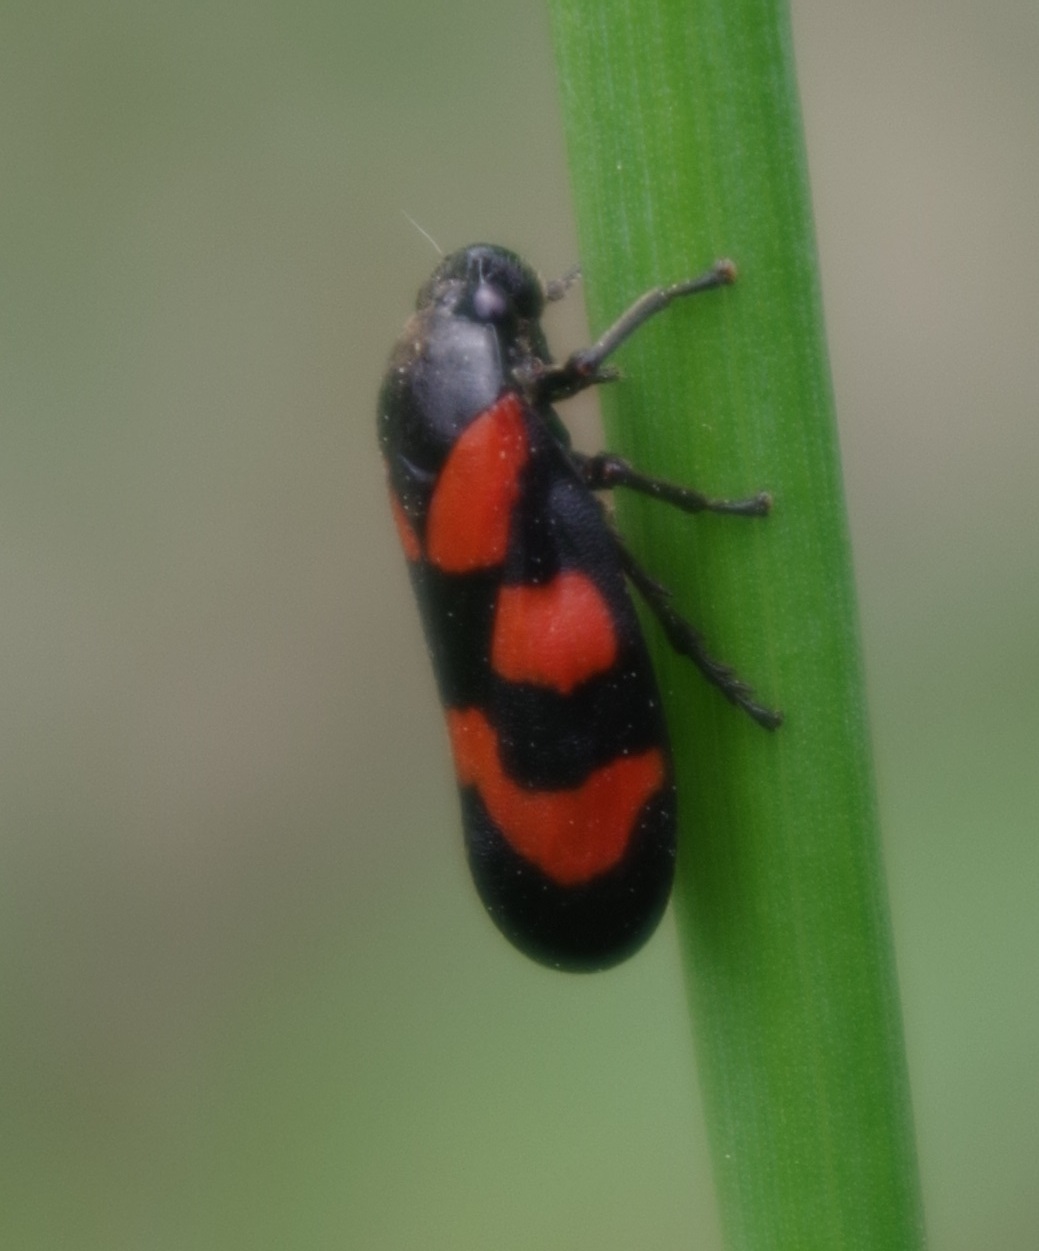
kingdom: Animalia
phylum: Arthropoda
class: Insecta
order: Hemiptera
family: Cercopidae
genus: Cercopis
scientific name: Cercopis vulnerata
